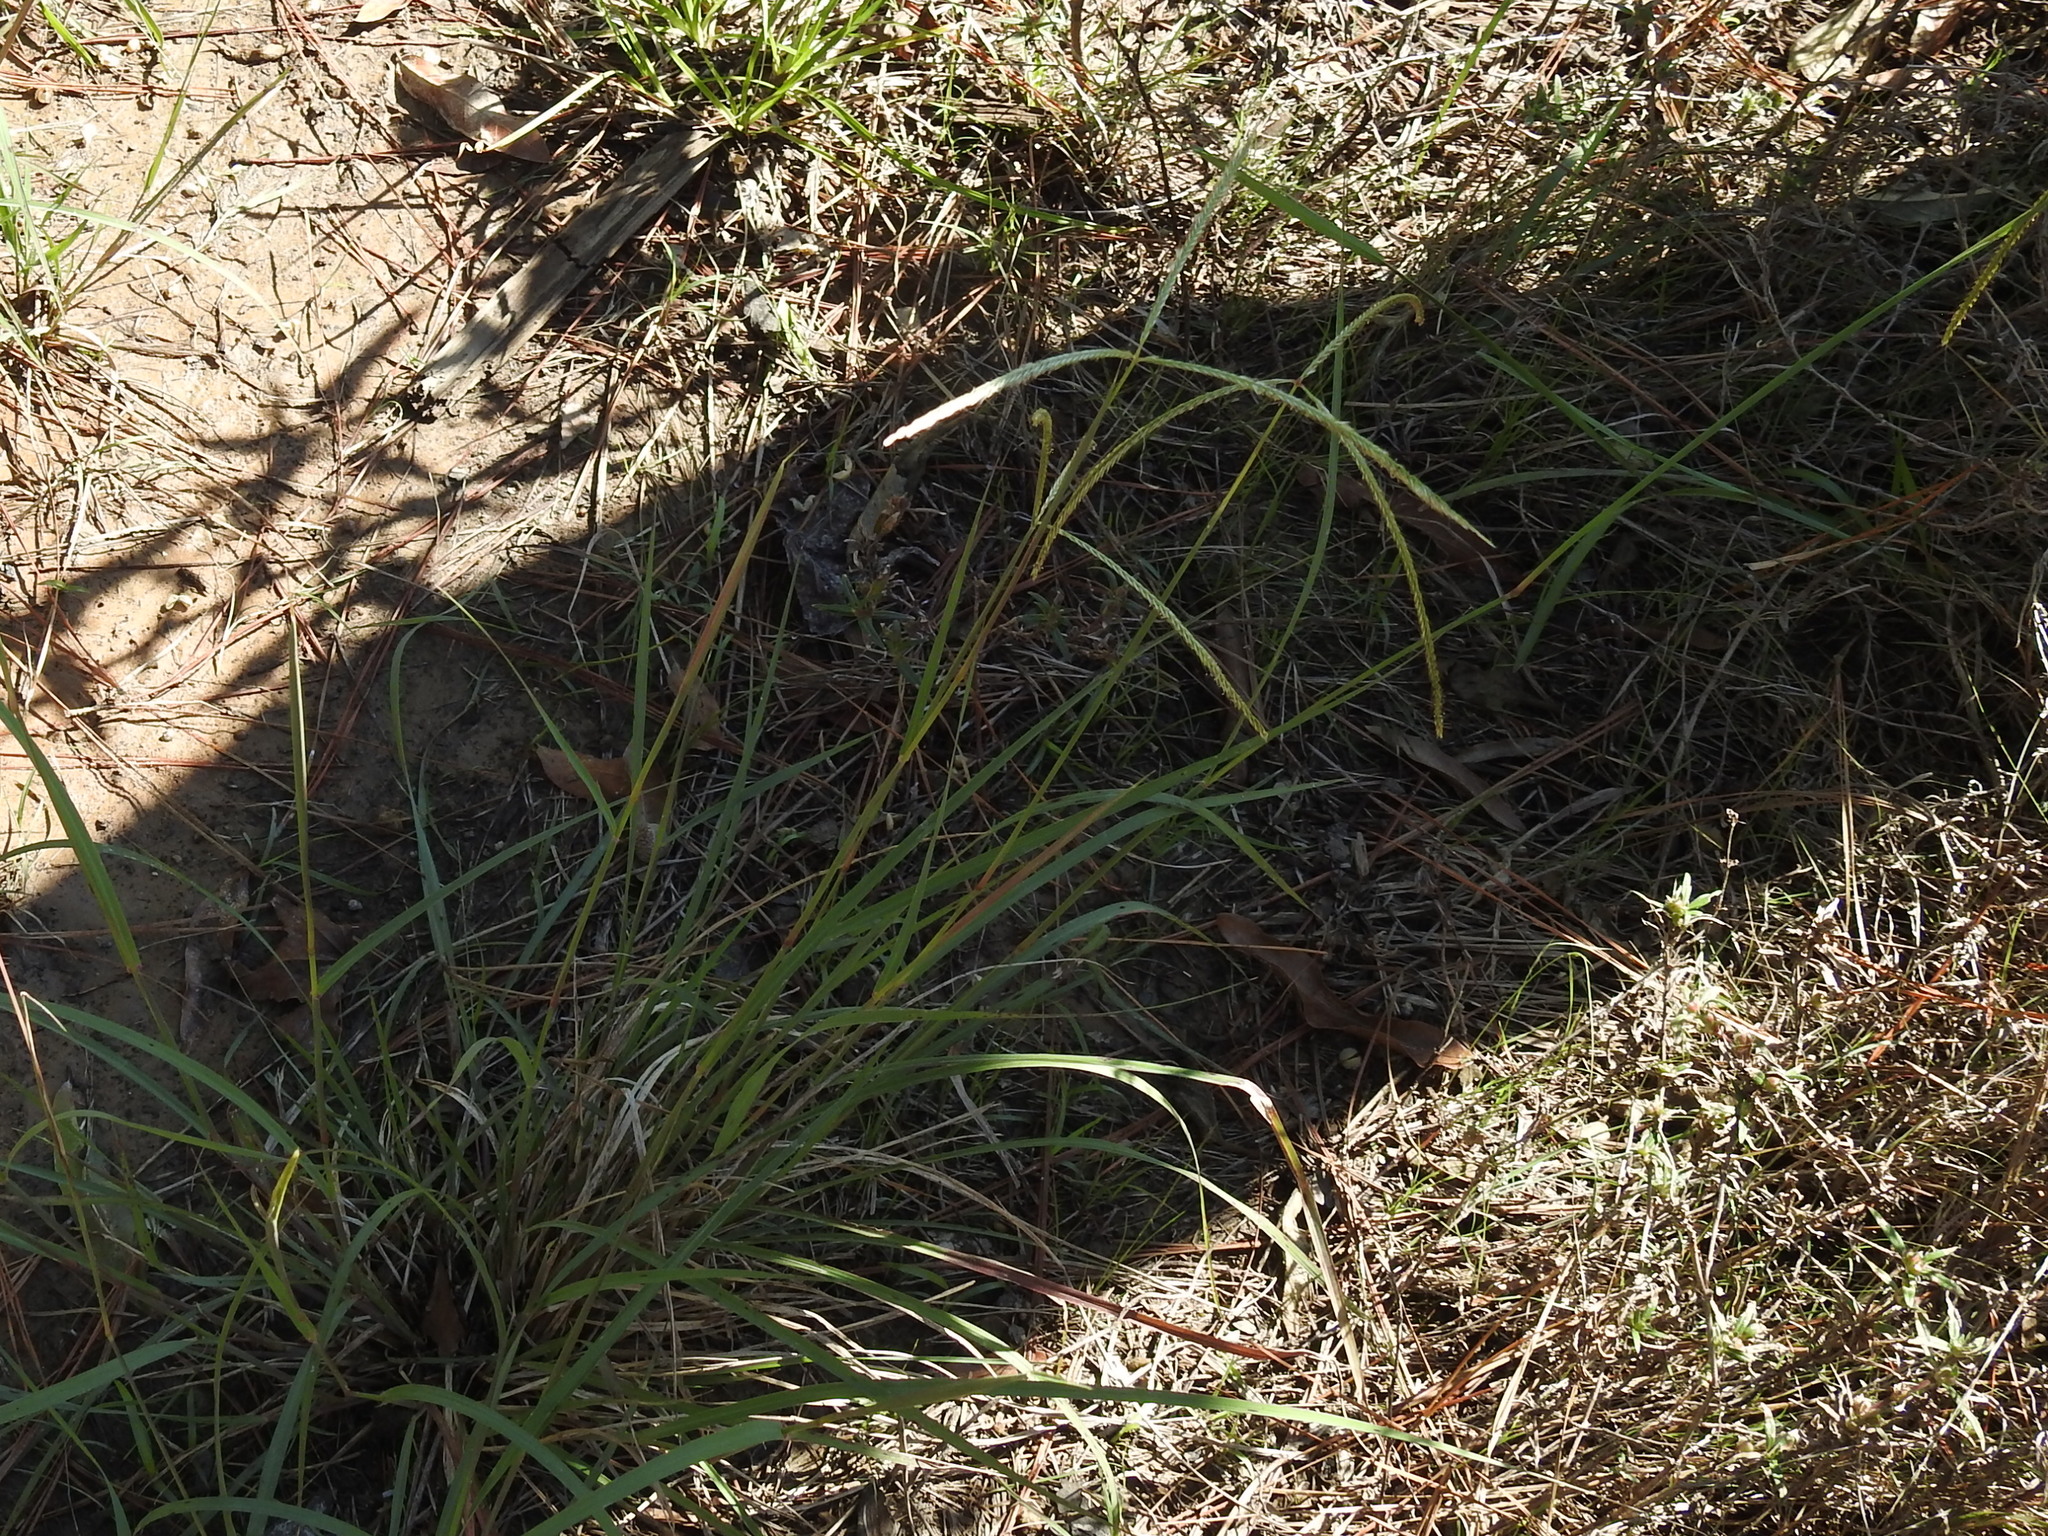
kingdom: Plantae
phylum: Tracheophyta
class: Liliopsida
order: Poales
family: Poaceae
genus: Stapfochloa
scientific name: Stapfochloa canterae
